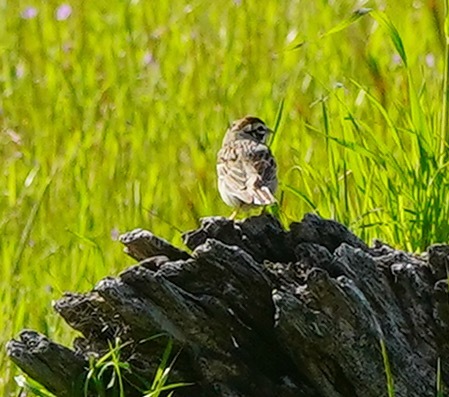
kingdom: Animalia
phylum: Chordata
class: Aves
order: Passeriformes
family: Passerellidae
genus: Chondestes
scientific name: Chondestes grammacus
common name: Lark sparrow
